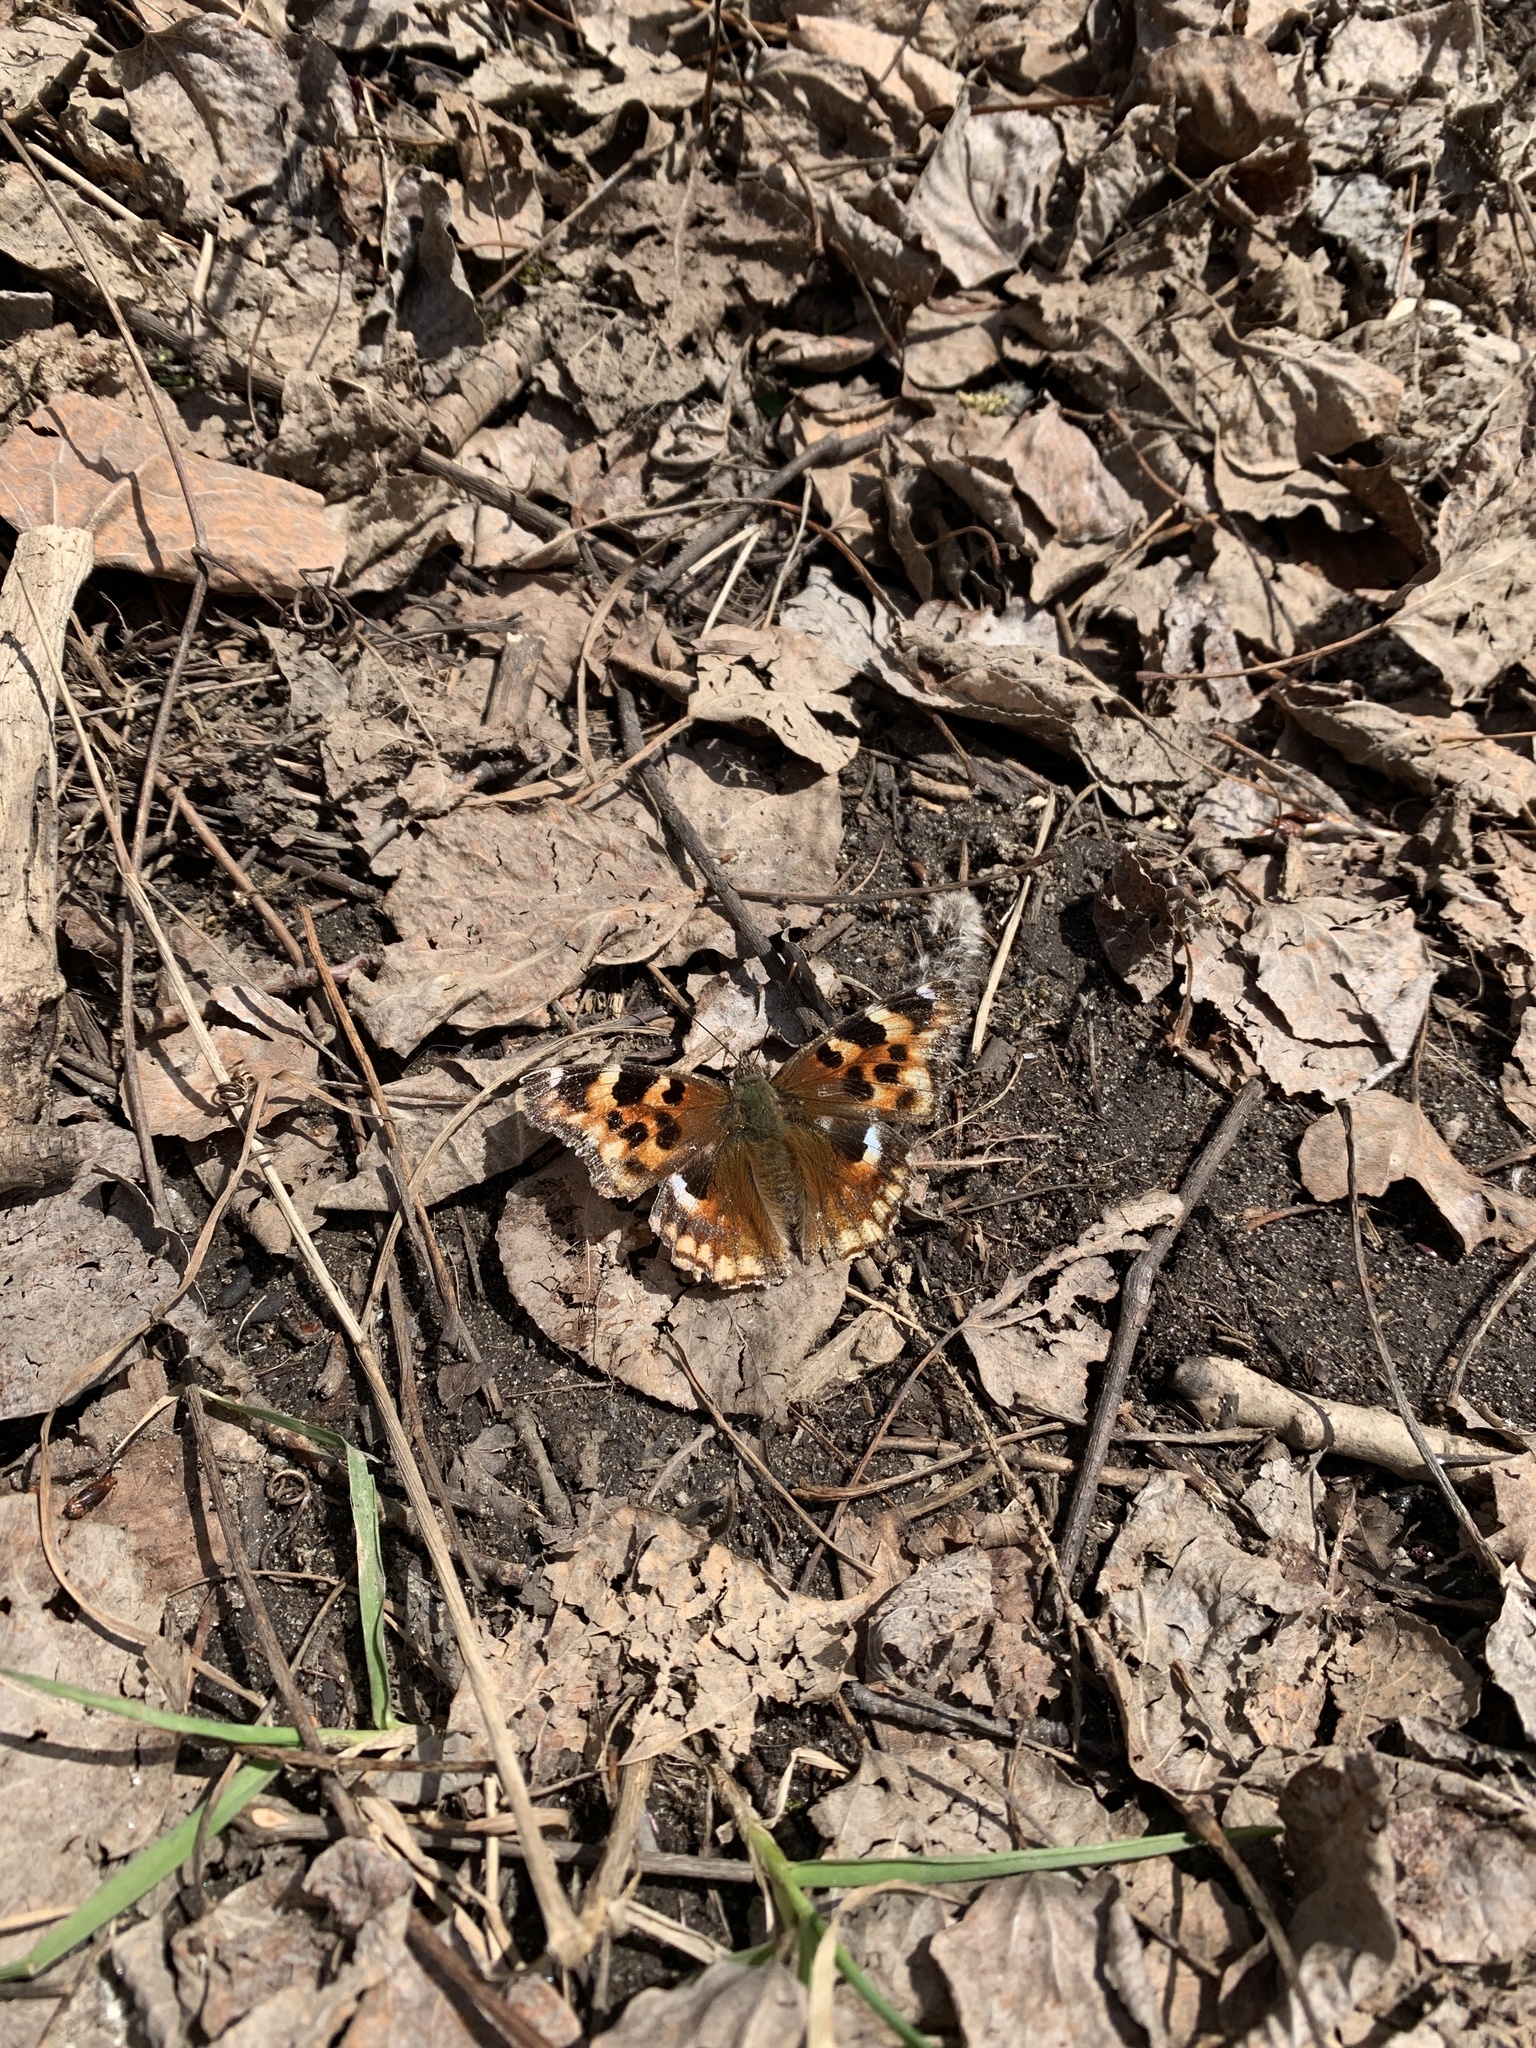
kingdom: Animalia
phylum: Arthropoda
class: Insecta
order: Lepidoptera
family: Nymphalidae
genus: Polygonia
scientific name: Polygonia vaualbum
